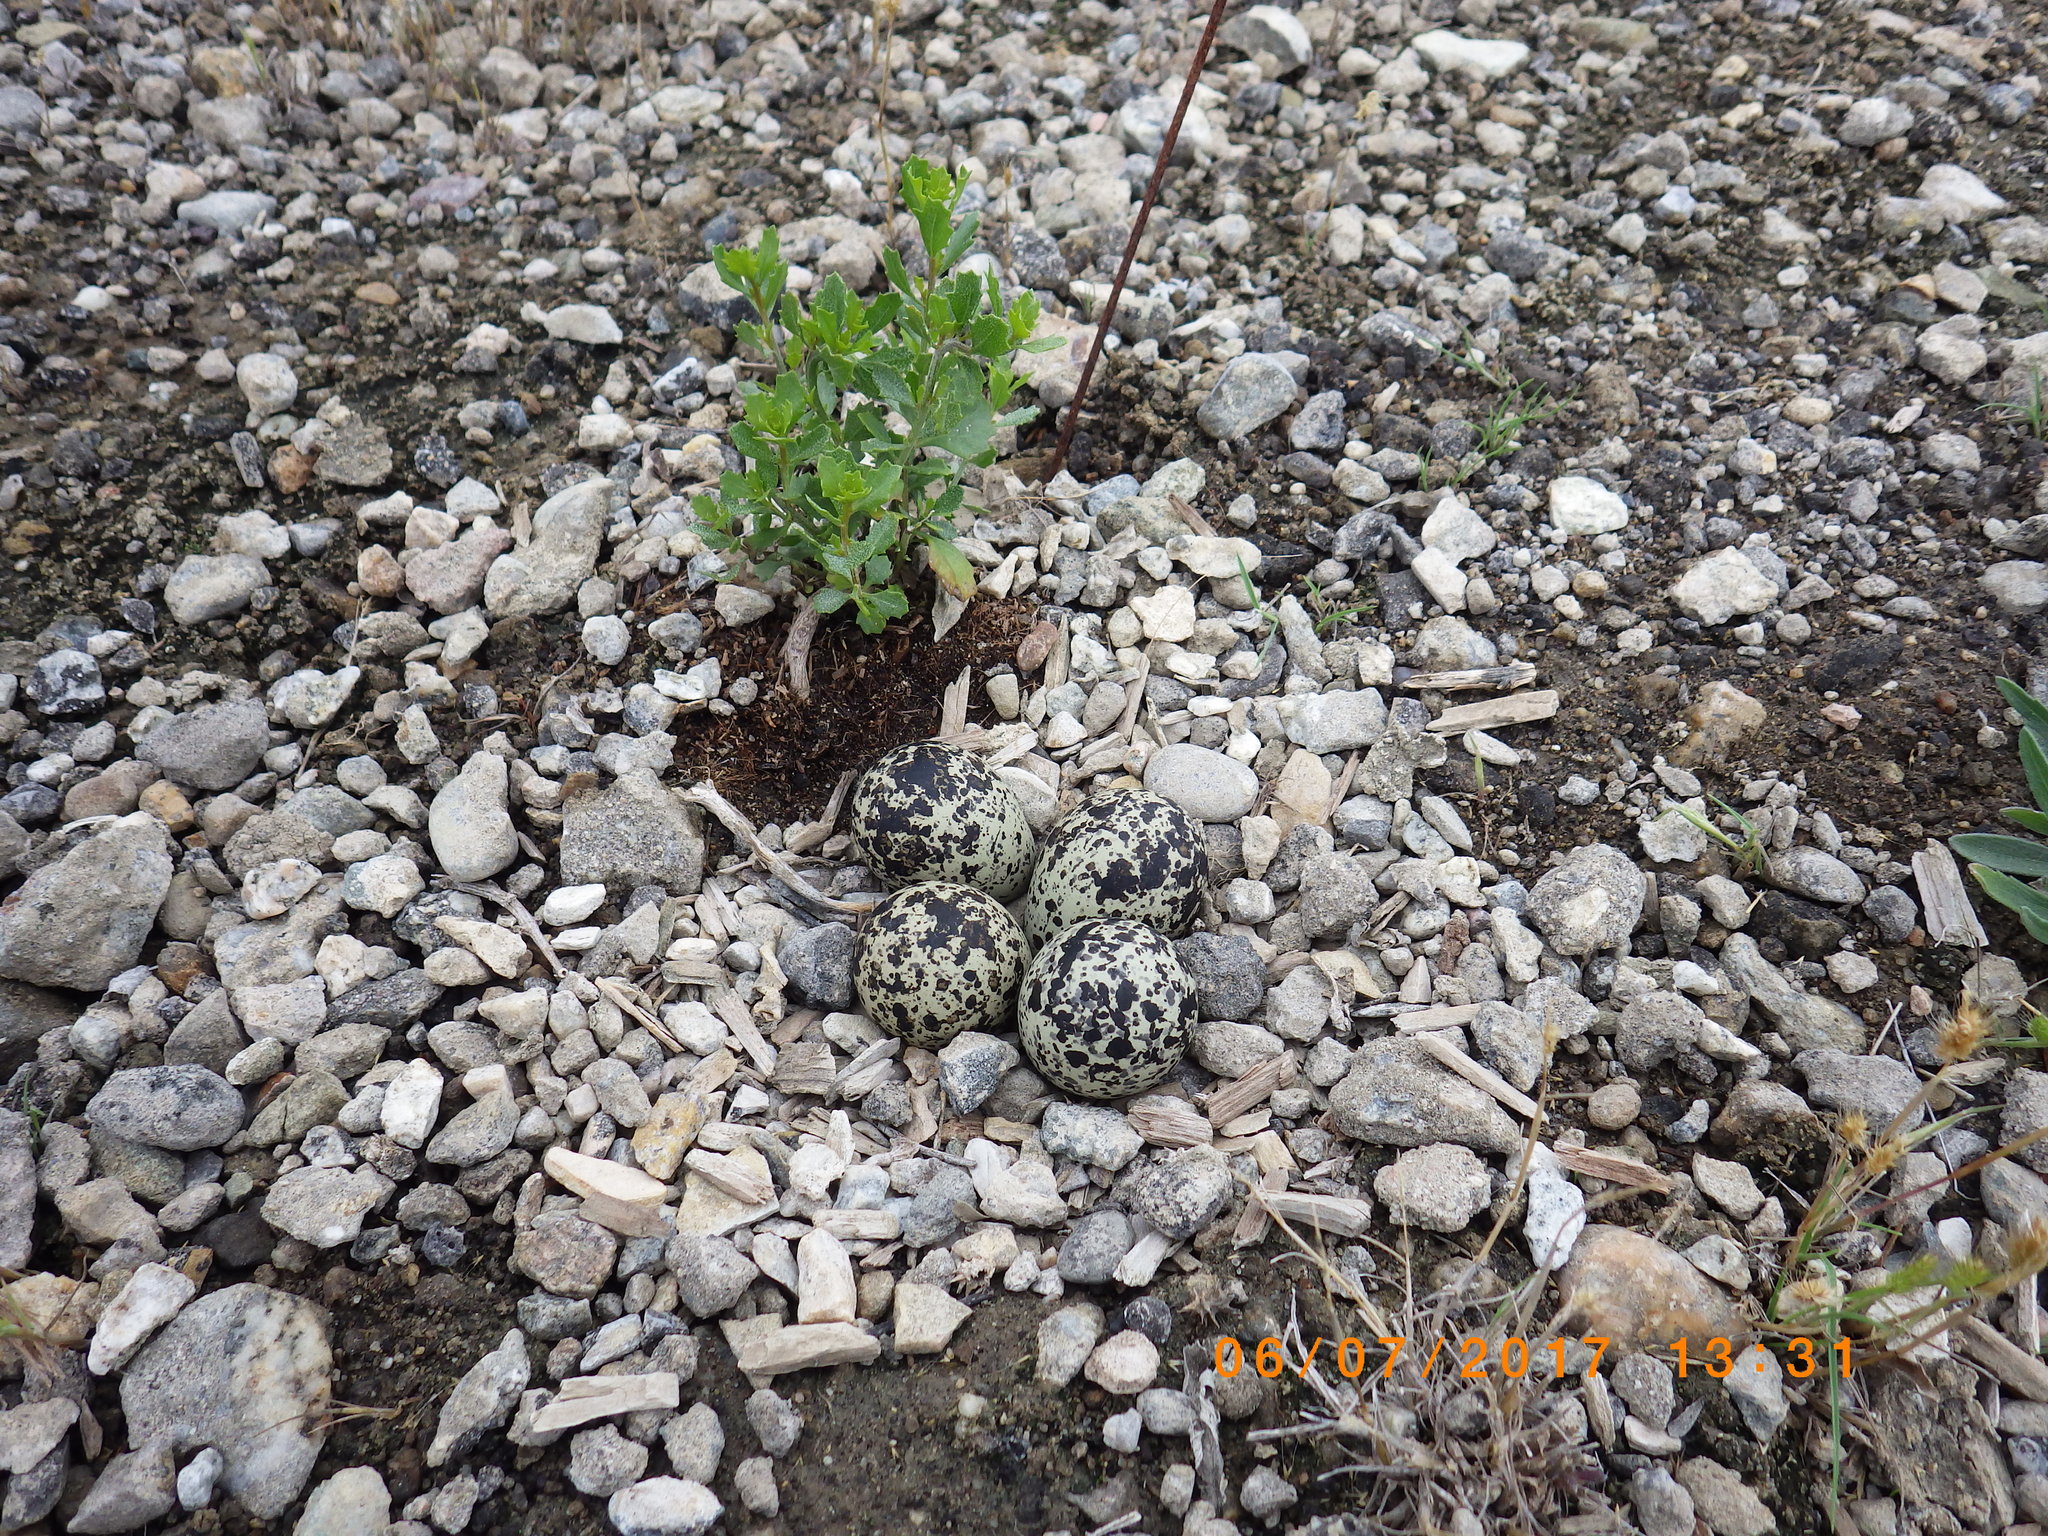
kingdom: Animalia
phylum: Chordata
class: Aves
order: Charadriiformes
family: Charadriidae
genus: Charadrius
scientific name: Charadrius vociferus
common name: Killdeer
